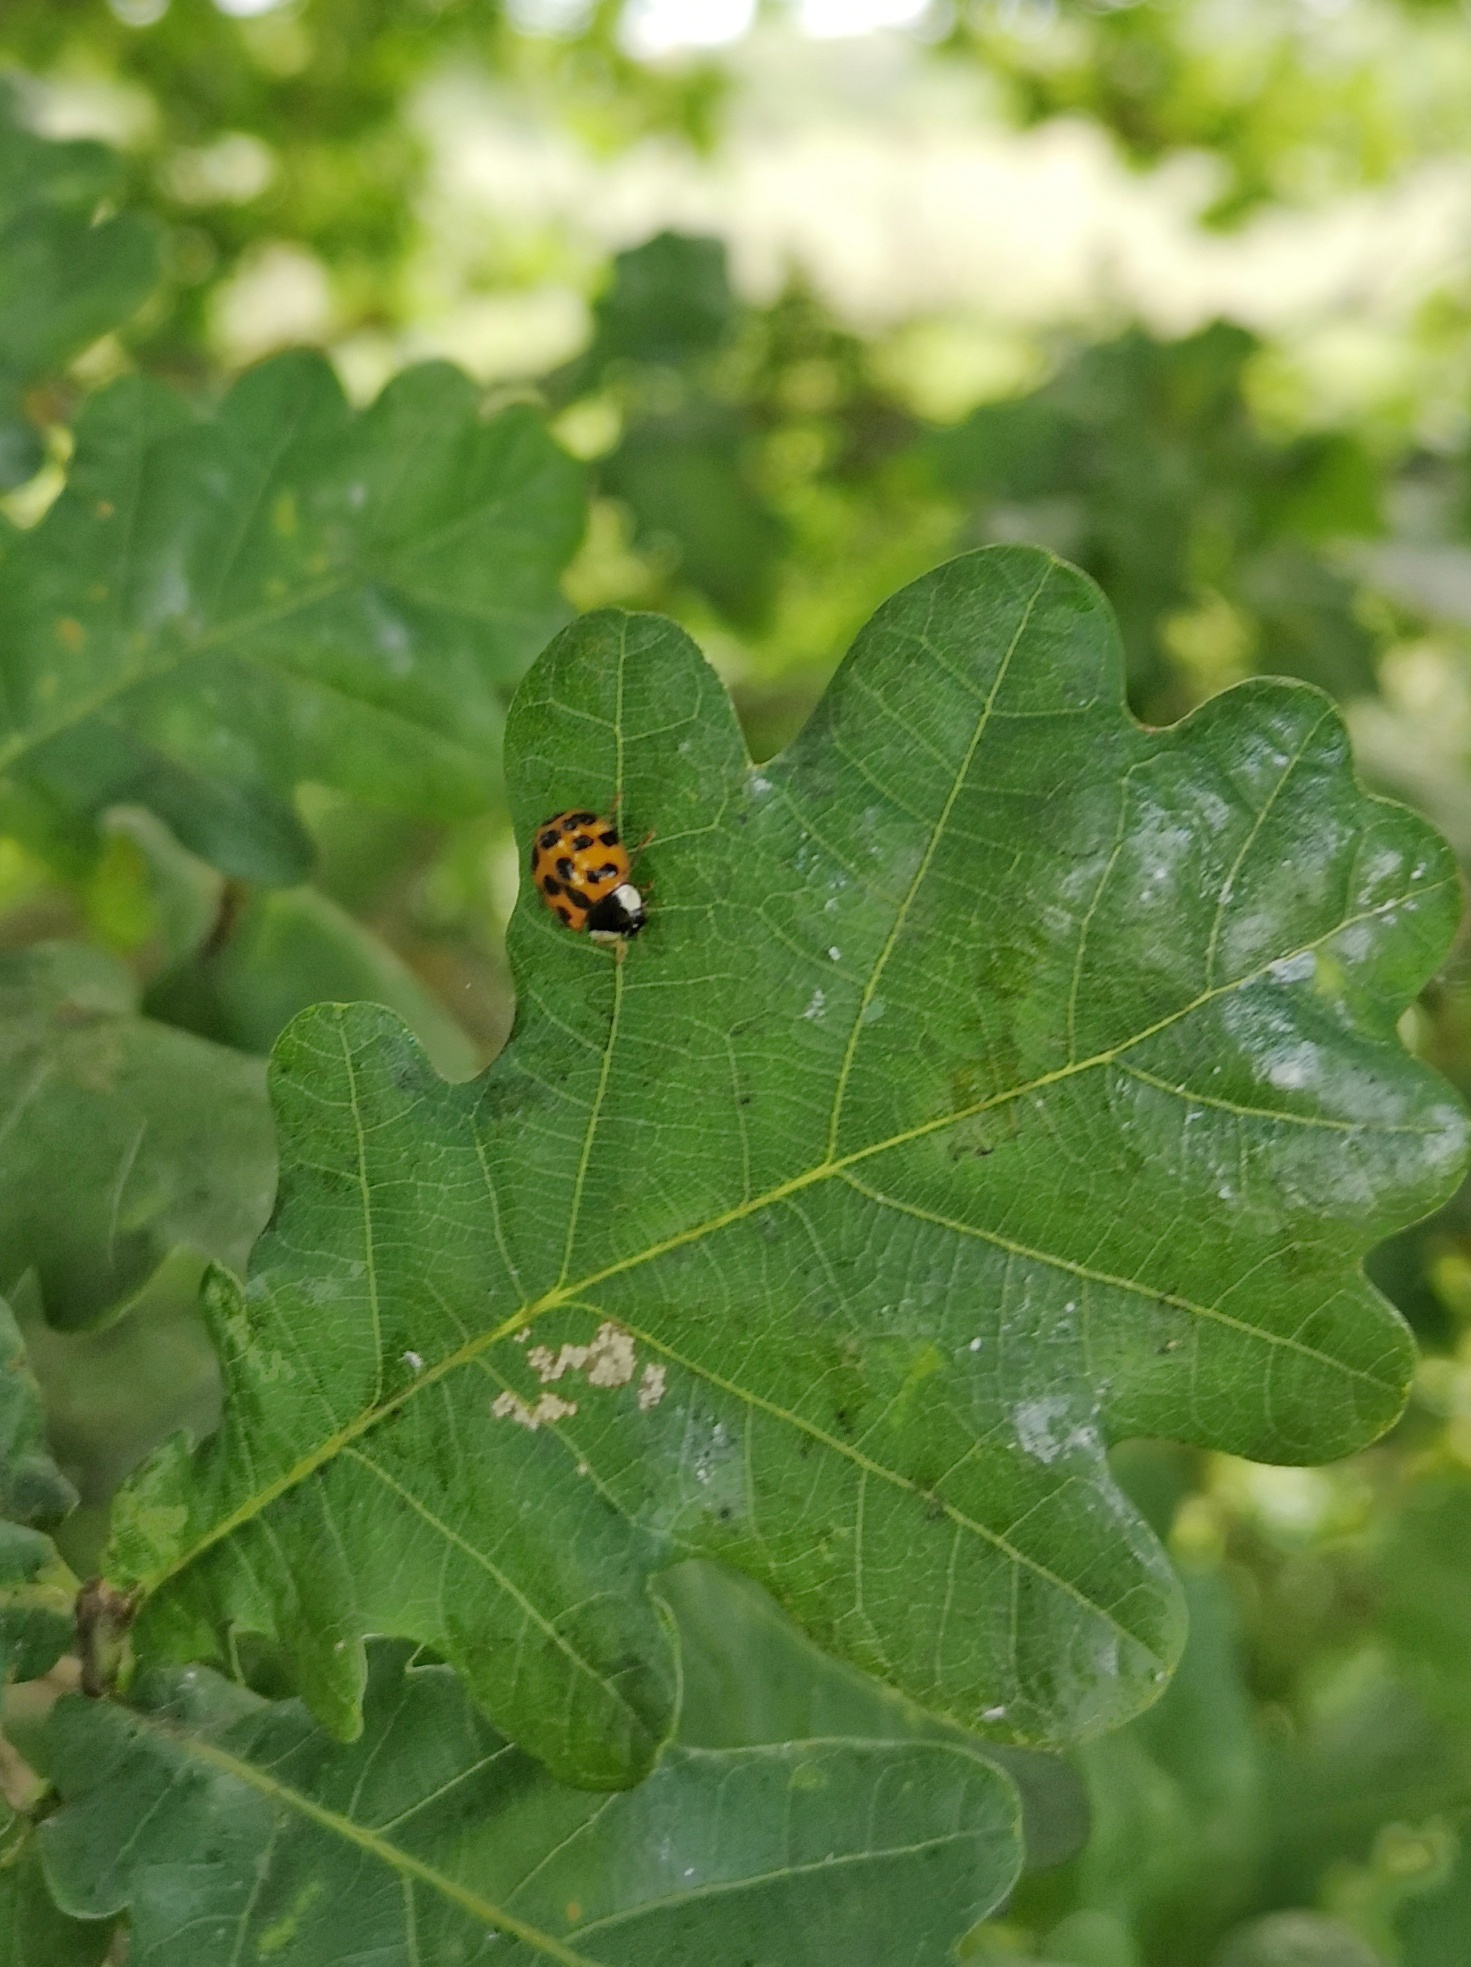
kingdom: Animalia
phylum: Arthropoda
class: Insecta
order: Coleoptera
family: Coccinellidae
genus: Harmonia
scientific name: Harmonia axyridis
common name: Harlequin ladybird
